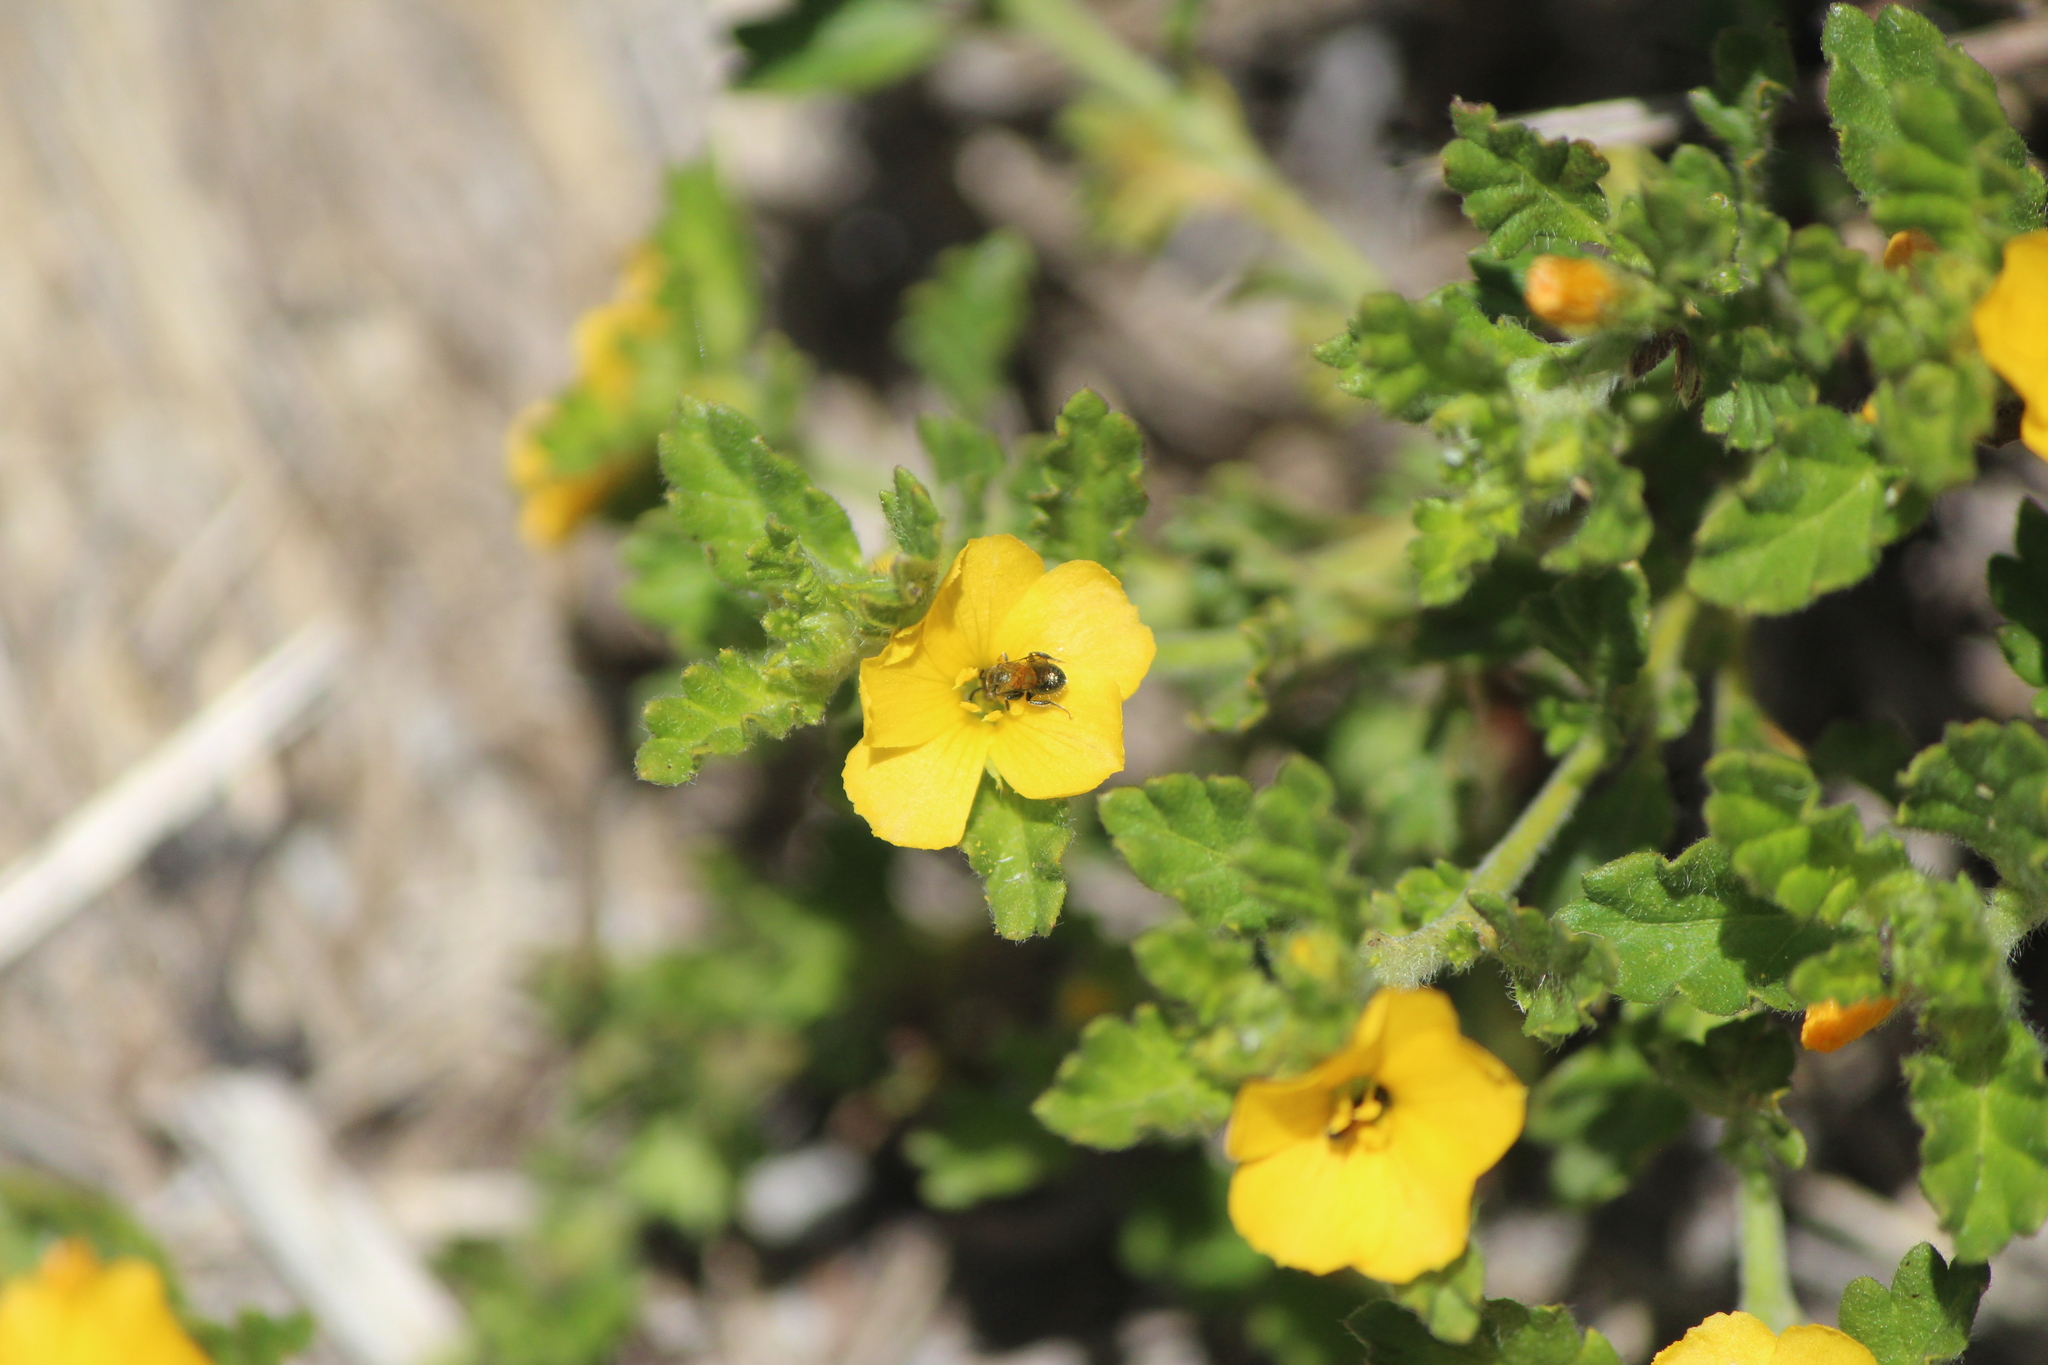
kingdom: Plantae
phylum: Tracheophyta
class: Magnoliopsida
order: Malpighiales
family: Turneraceae
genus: Turnera
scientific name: Turnera diffusa
